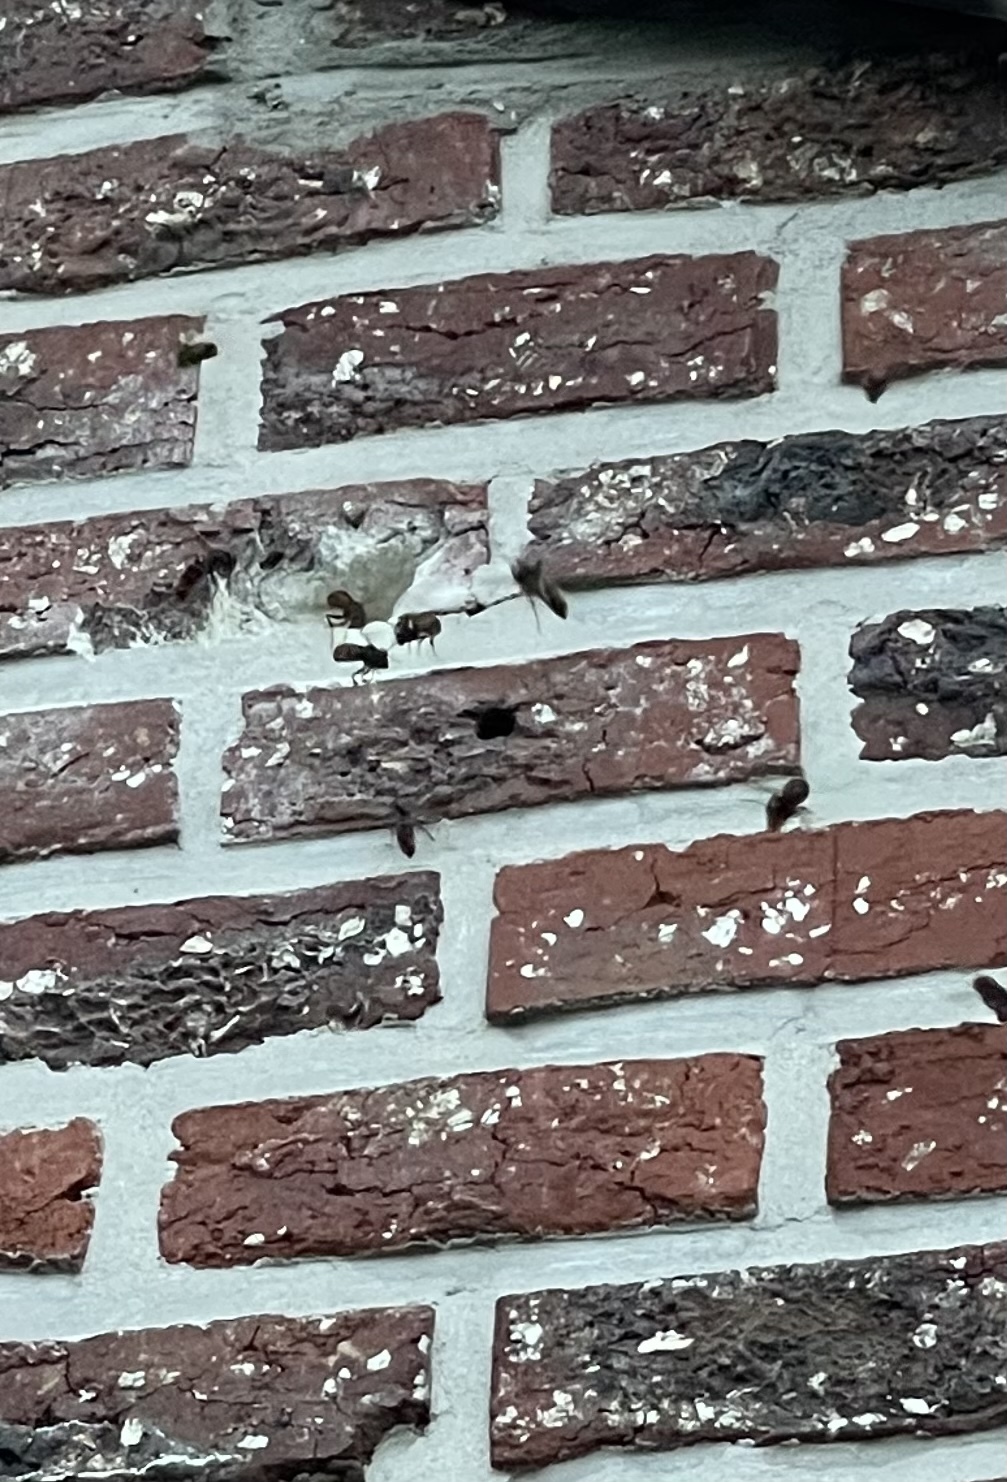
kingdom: Animalia
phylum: Arthropoda
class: Insecta
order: Hymenoptera
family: Vespidae
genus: Vespa
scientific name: Vespa velutina
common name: Asian hornet
